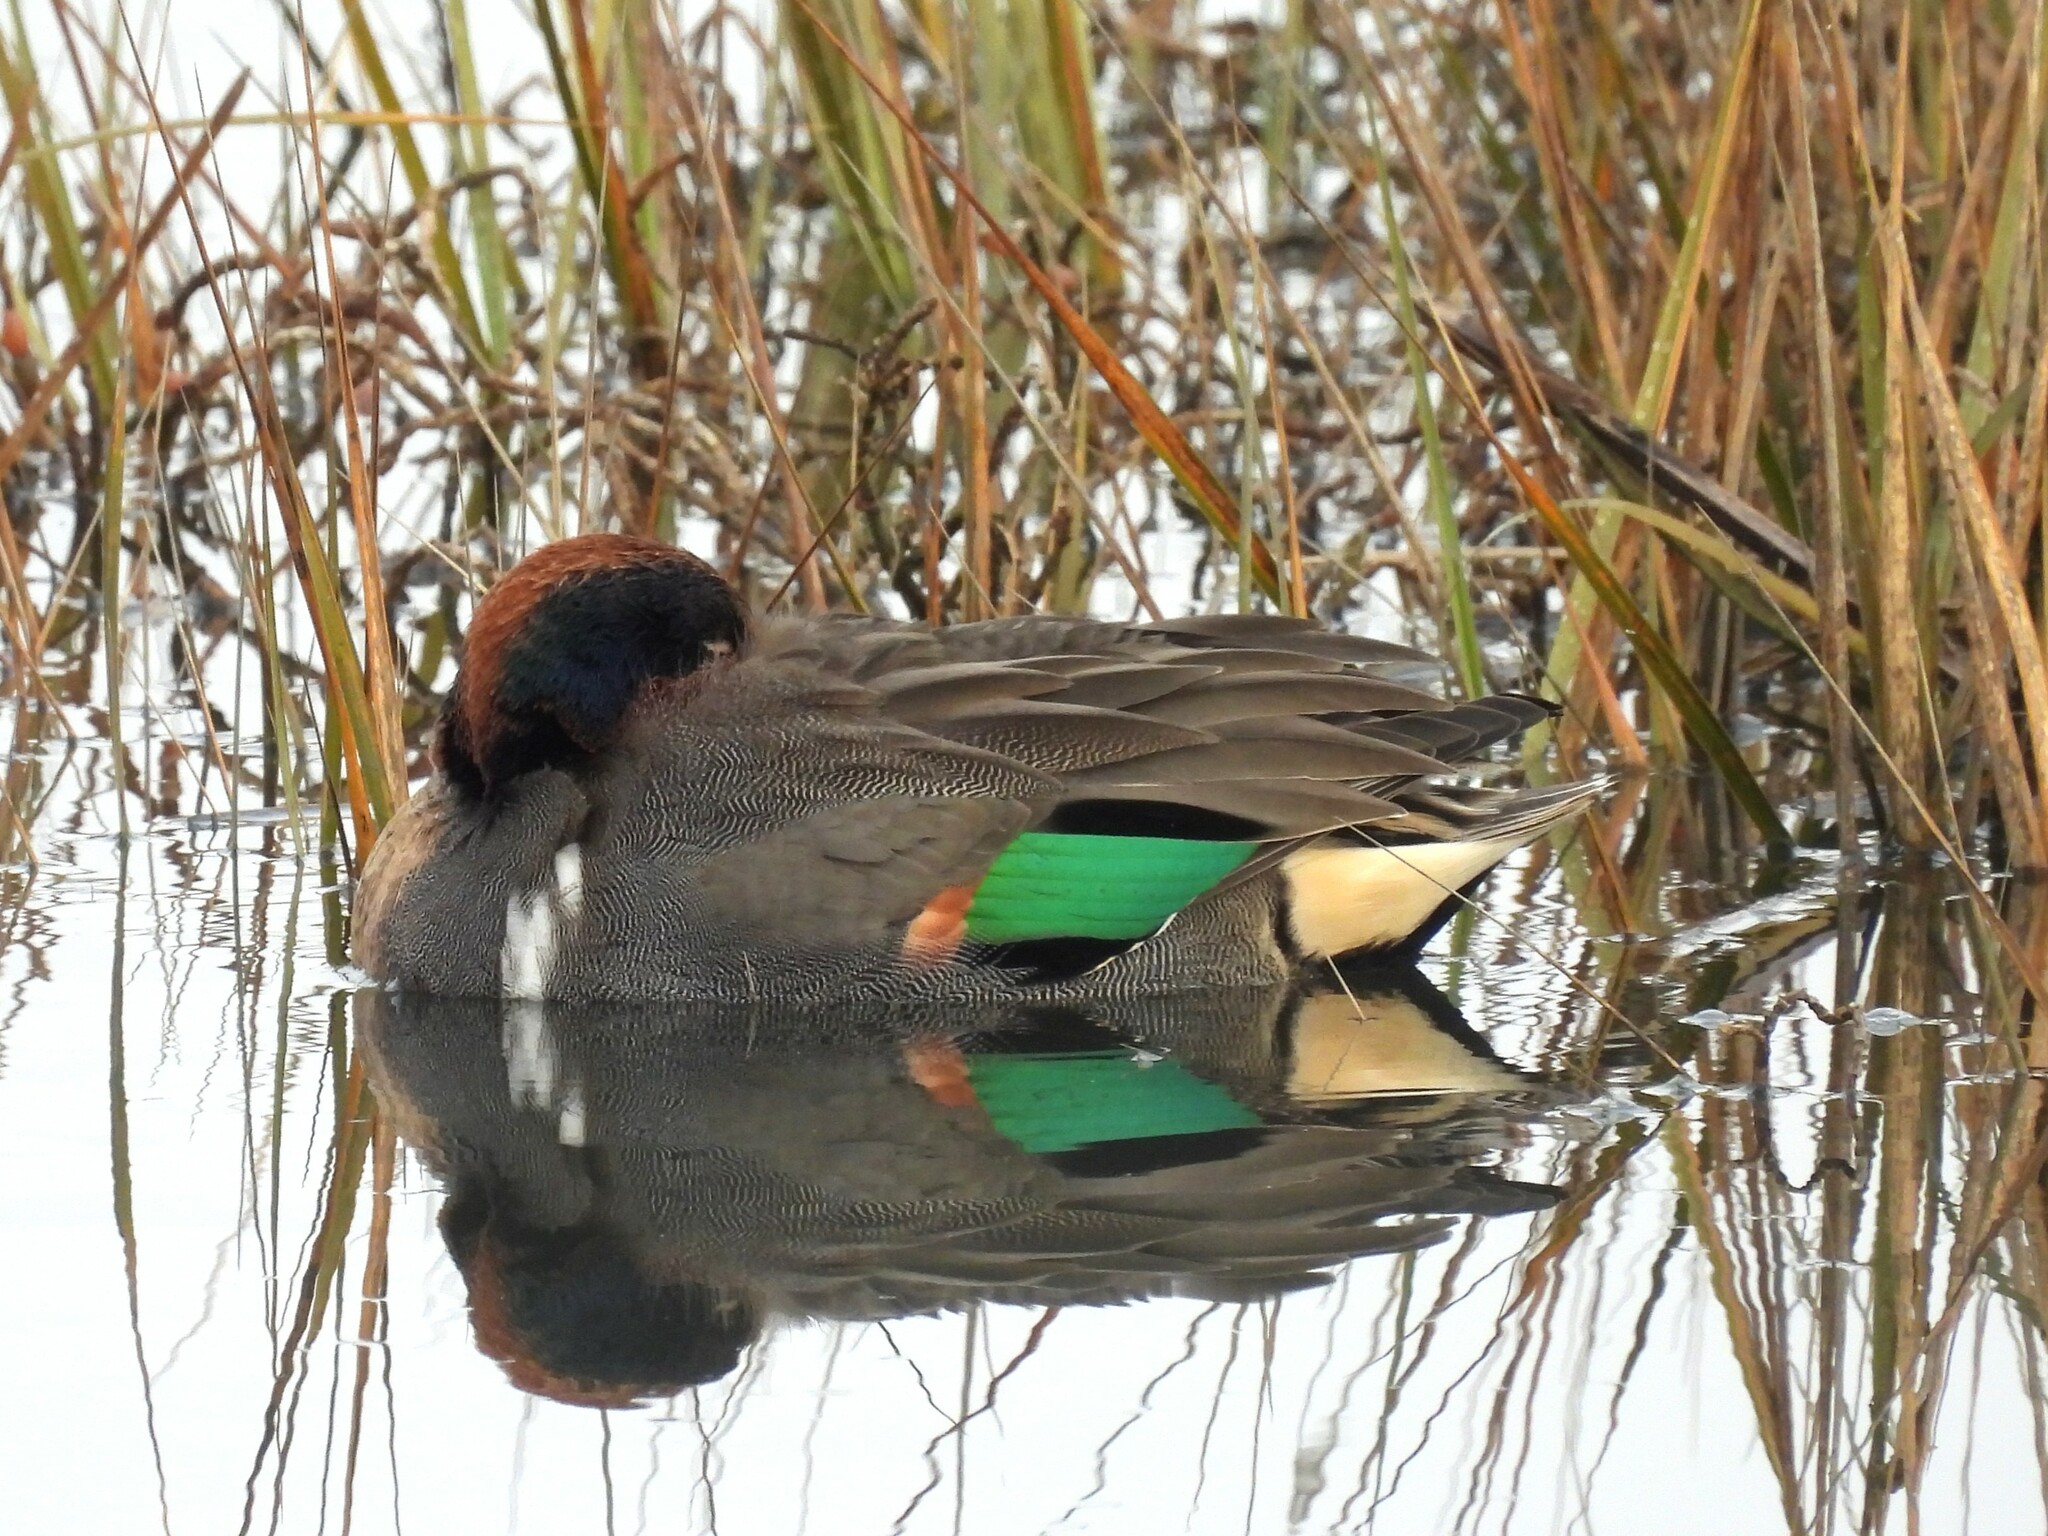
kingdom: Animalia
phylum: Chordata
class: Aves
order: Anseriformes
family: Anatidae
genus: Anas
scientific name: Anas crecca
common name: Eurasian teal
